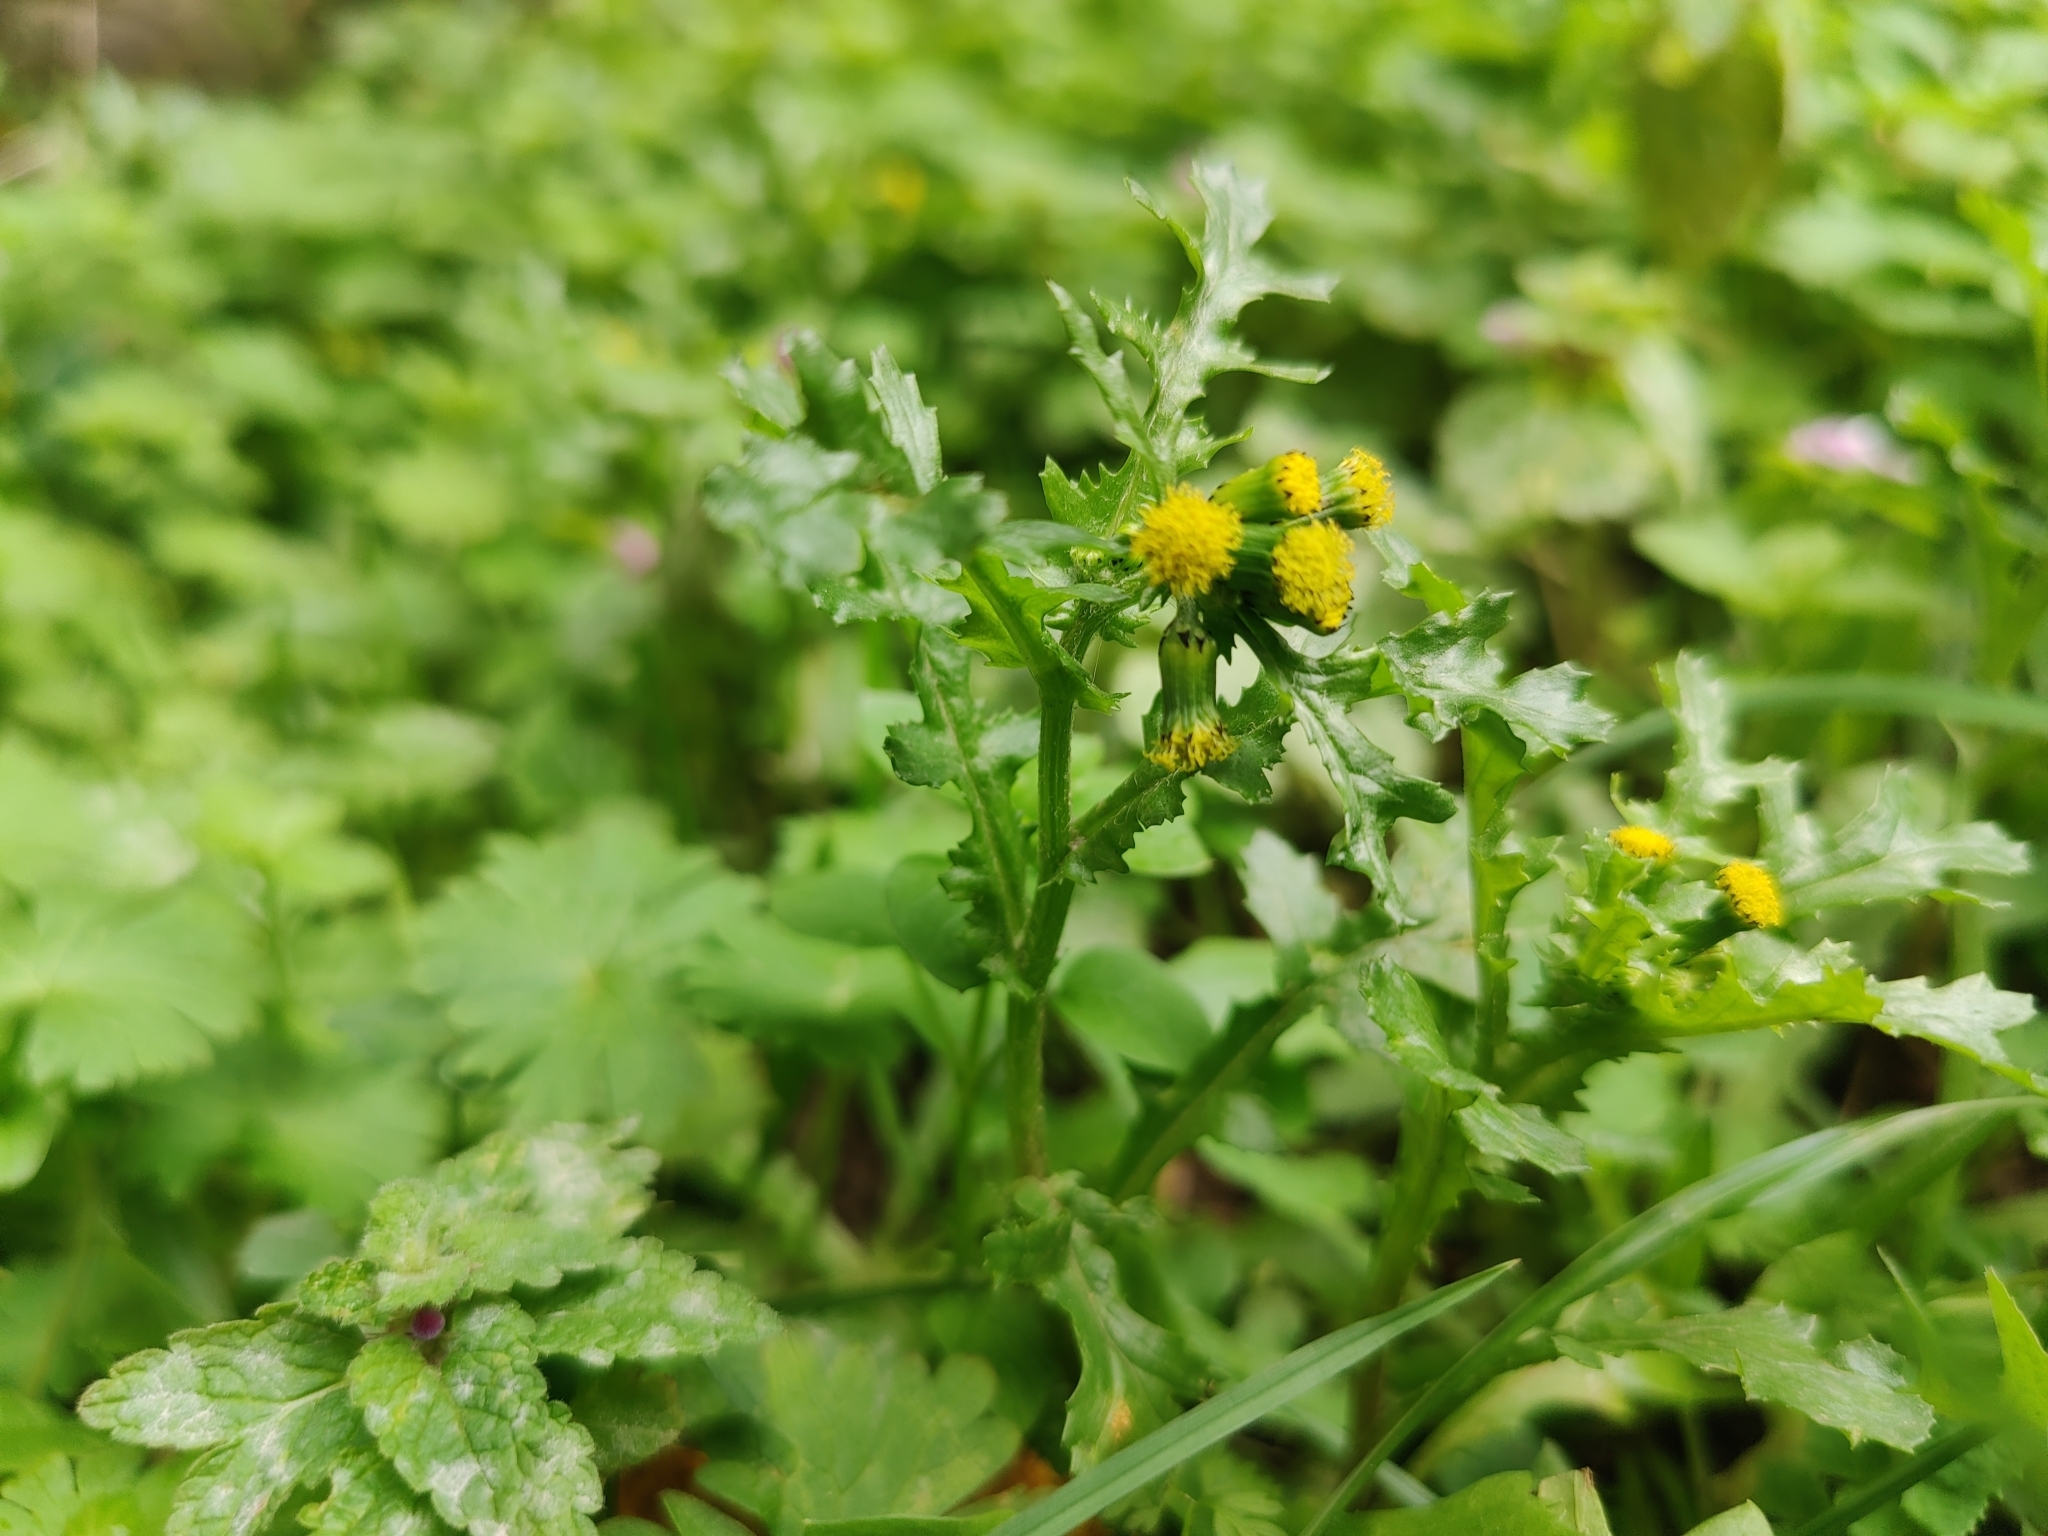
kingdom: Plantae
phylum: Tracheophyta
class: Magnoliopsida
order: Asterales
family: Asteraceae
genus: Senecio
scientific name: Senecio vulgaris
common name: Old-man-in-the-spring
